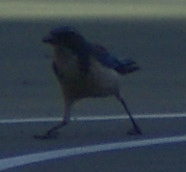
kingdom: Animalia
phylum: Chordata
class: Aves
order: Passeriformes
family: Corvidae
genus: Aphelocoma
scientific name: Aphelocoma californica
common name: California scrub-jay
